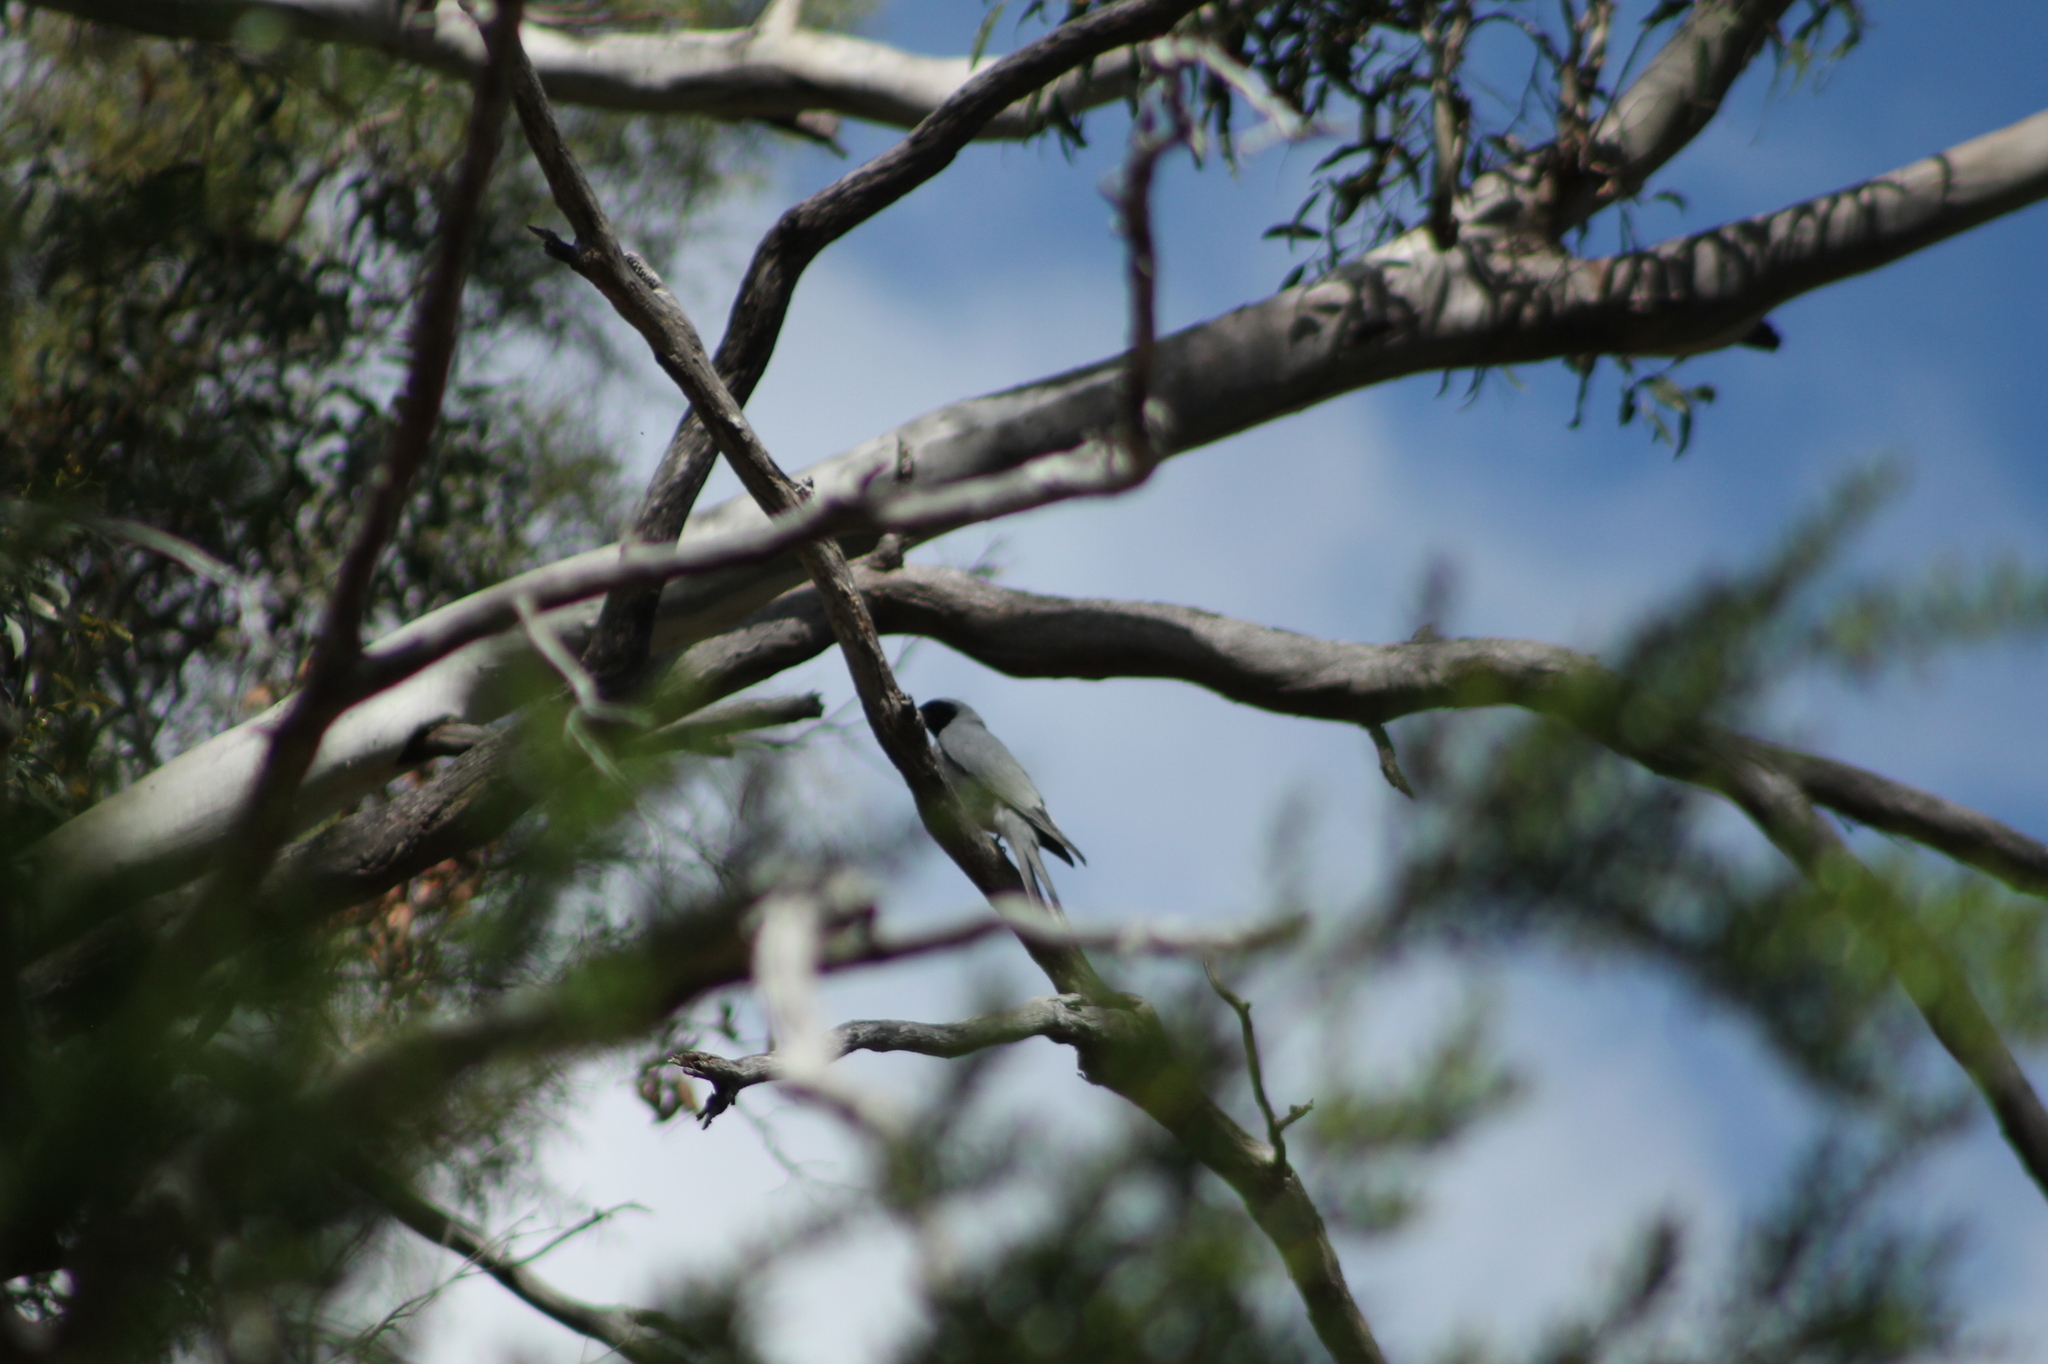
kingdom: Animalia
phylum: Chordata
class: Aves
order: Passeriformes
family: Campephagidae
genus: Coracina
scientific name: Coracina novaehollandiae
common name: Black-faced cuckooshrike
